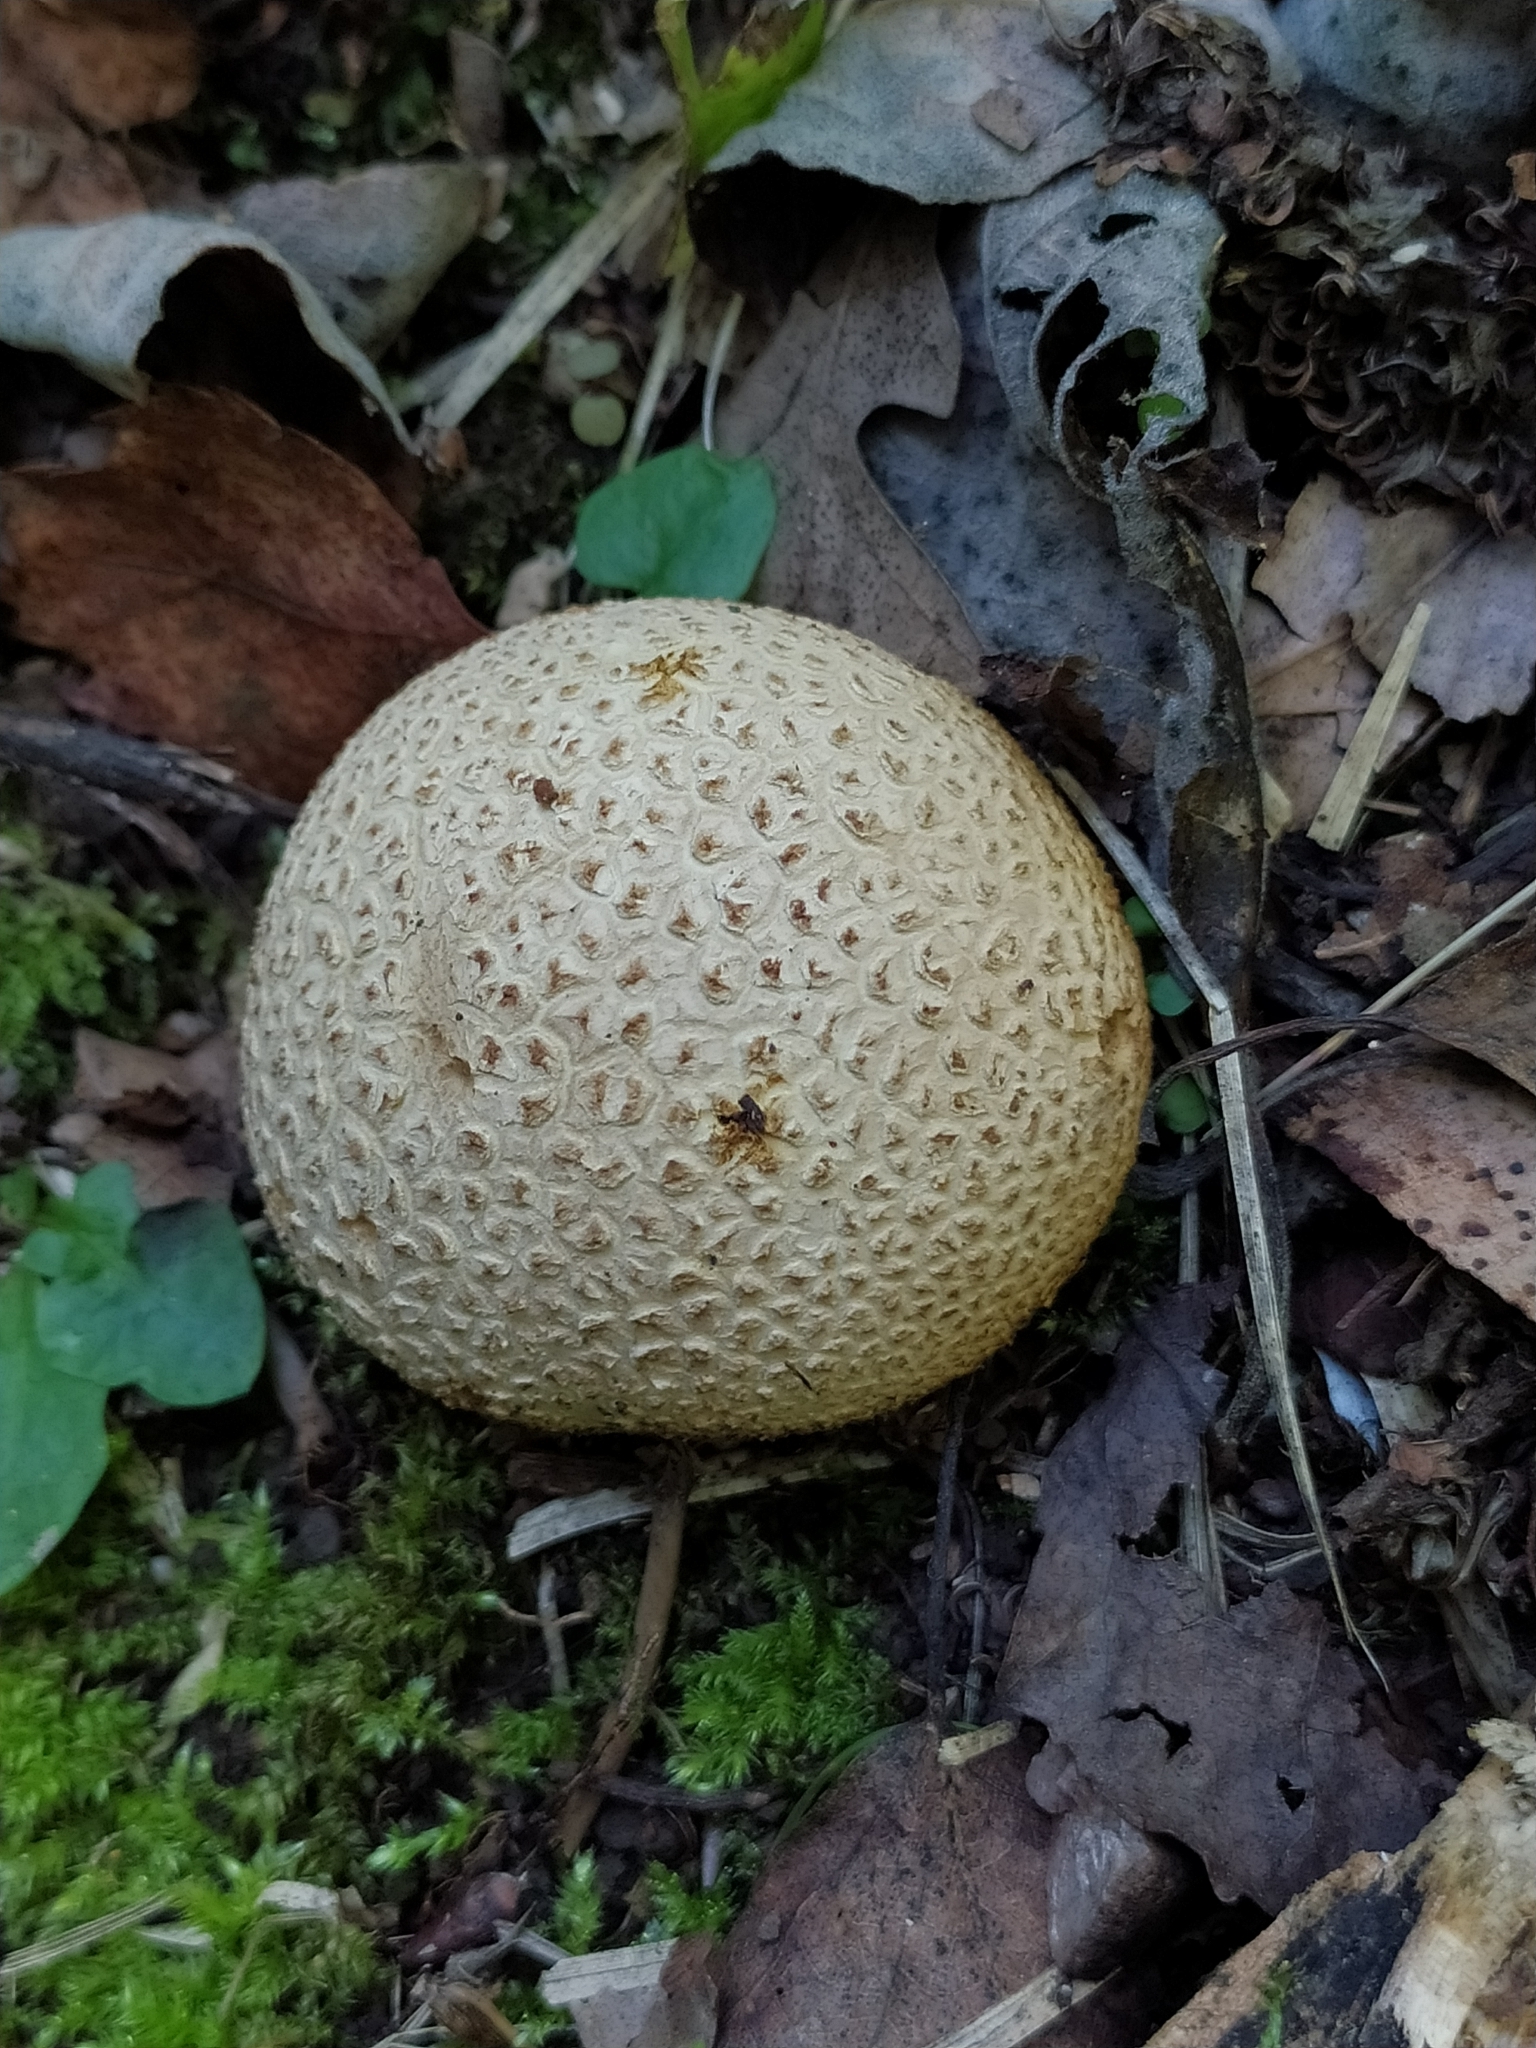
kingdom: Fungi
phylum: Basidiomycota
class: Agaricomycetes
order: Boletales
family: Sclerodermataceae
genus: Scleroderma
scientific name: Scleroderma citrinum
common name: Common earthball
